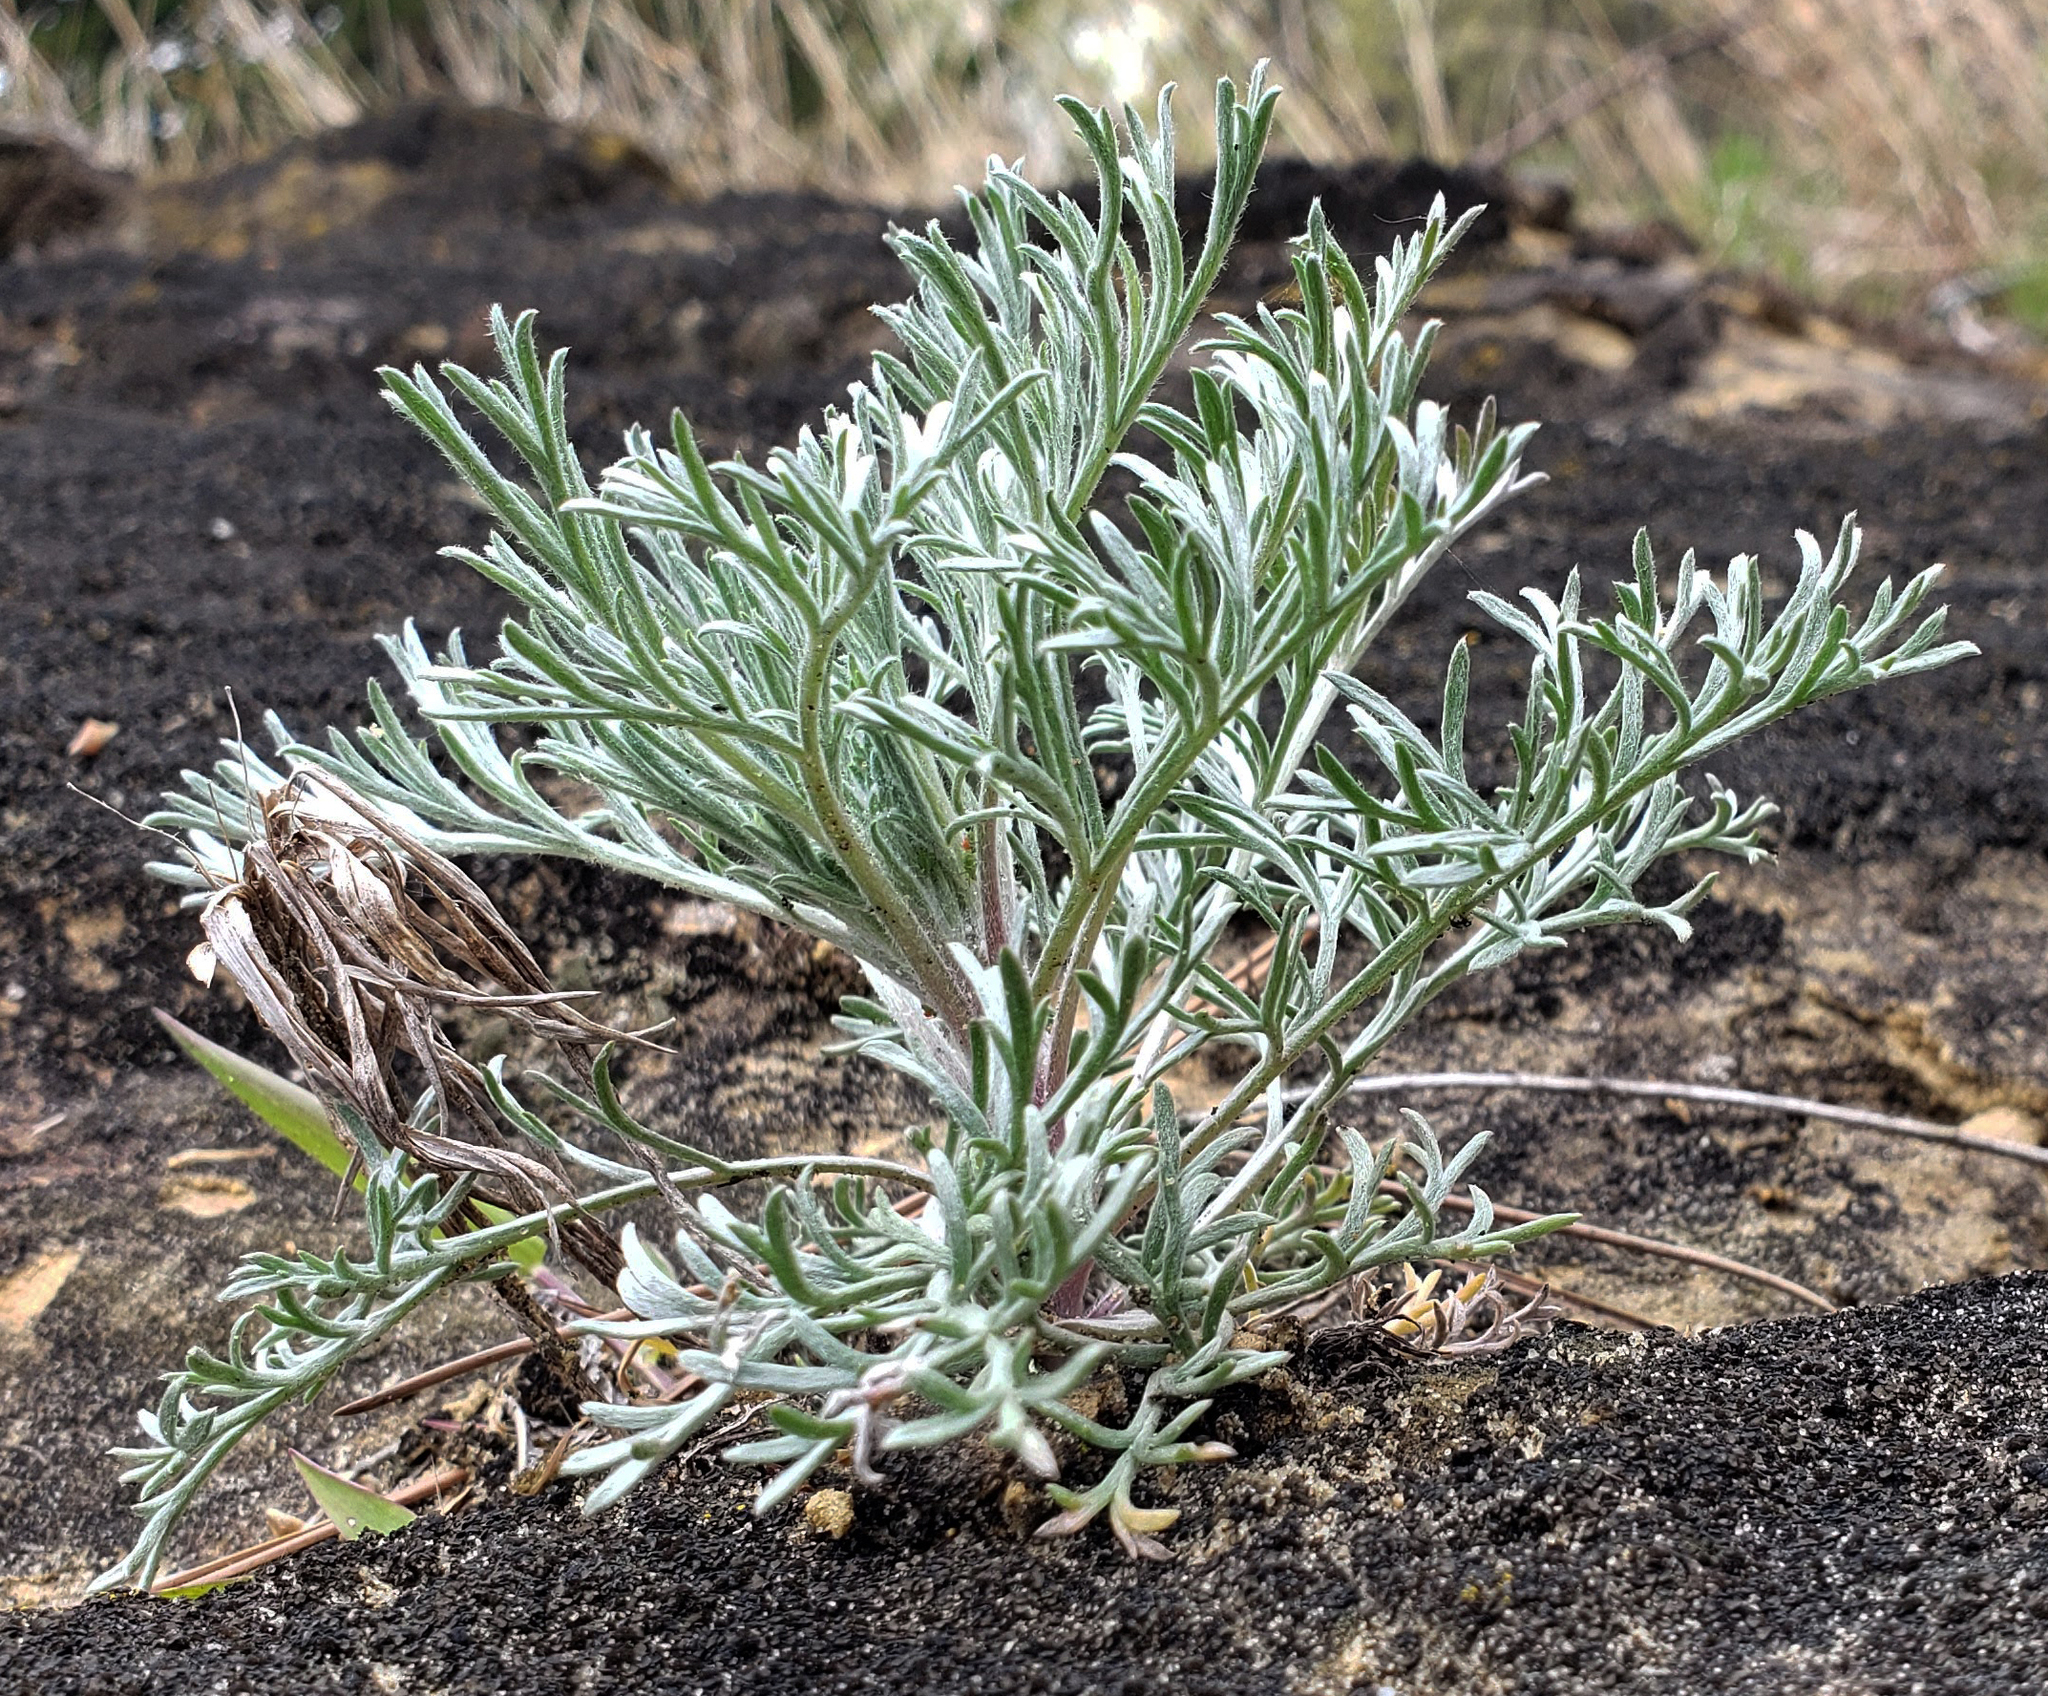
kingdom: Plantae
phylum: Tracheophyta
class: Magnoliopsida
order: Asterales
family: Asteraceae
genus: Artemisia
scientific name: Artemisia campestris
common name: Field wormwood
